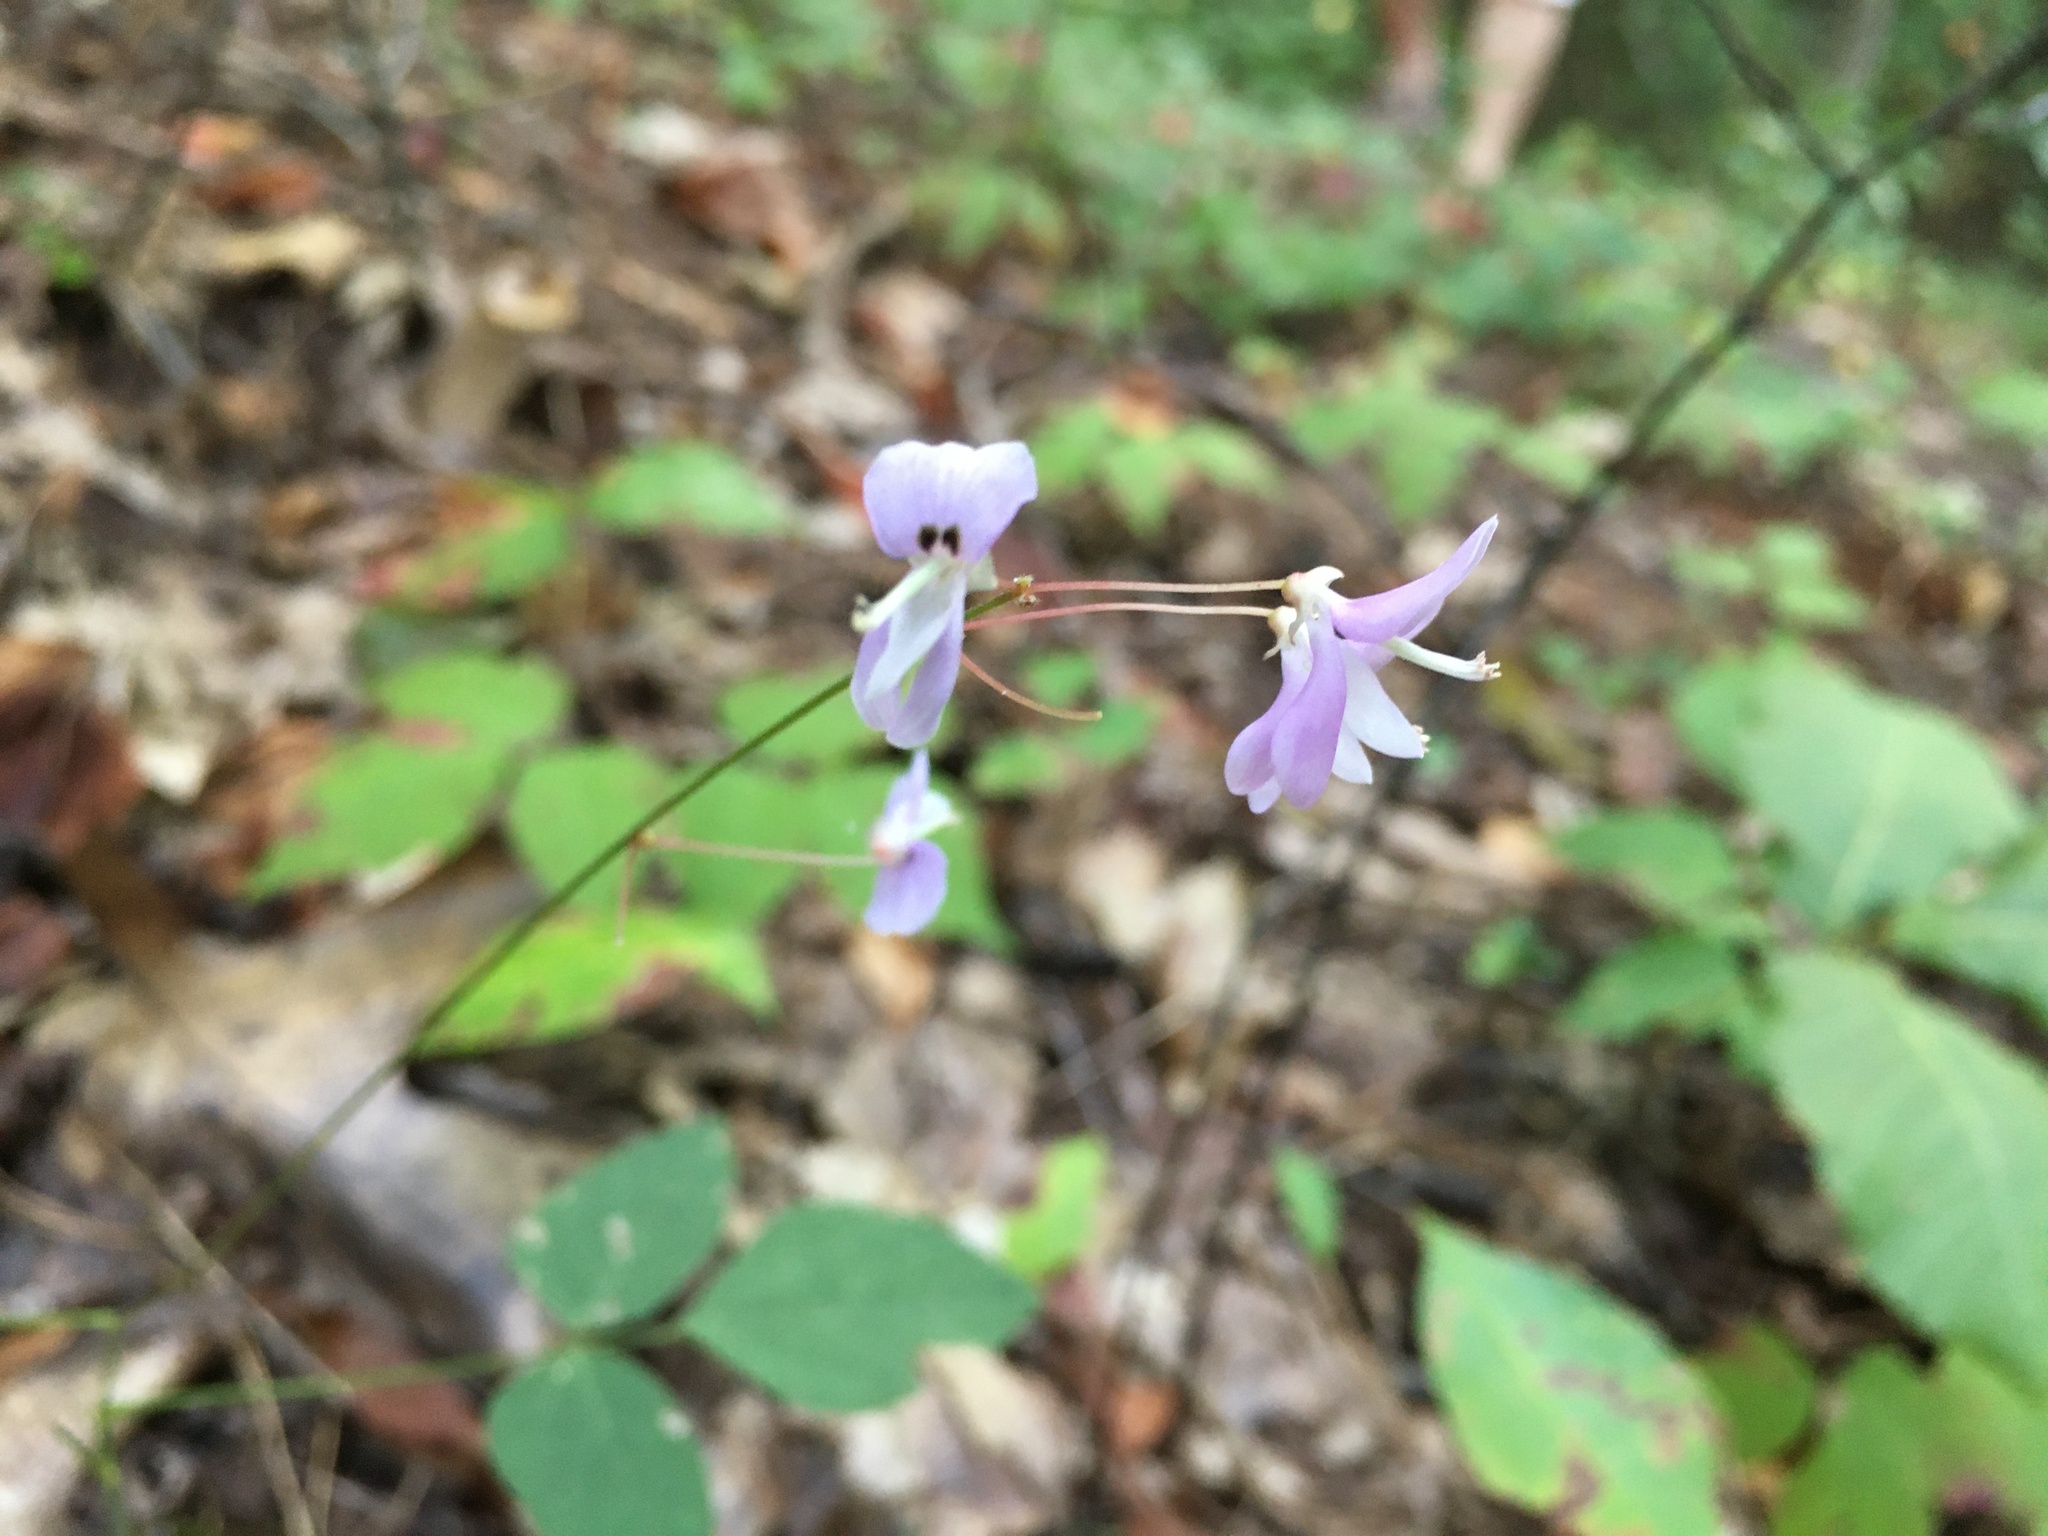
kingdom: Plantae
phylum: Tracheophyta
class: Magnoliopsida
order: Fabales
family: Fabaceae
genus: Hylodesmum
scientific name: Hylodesmum nudiflorum
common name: Bare-stemmed tick-trefoil
